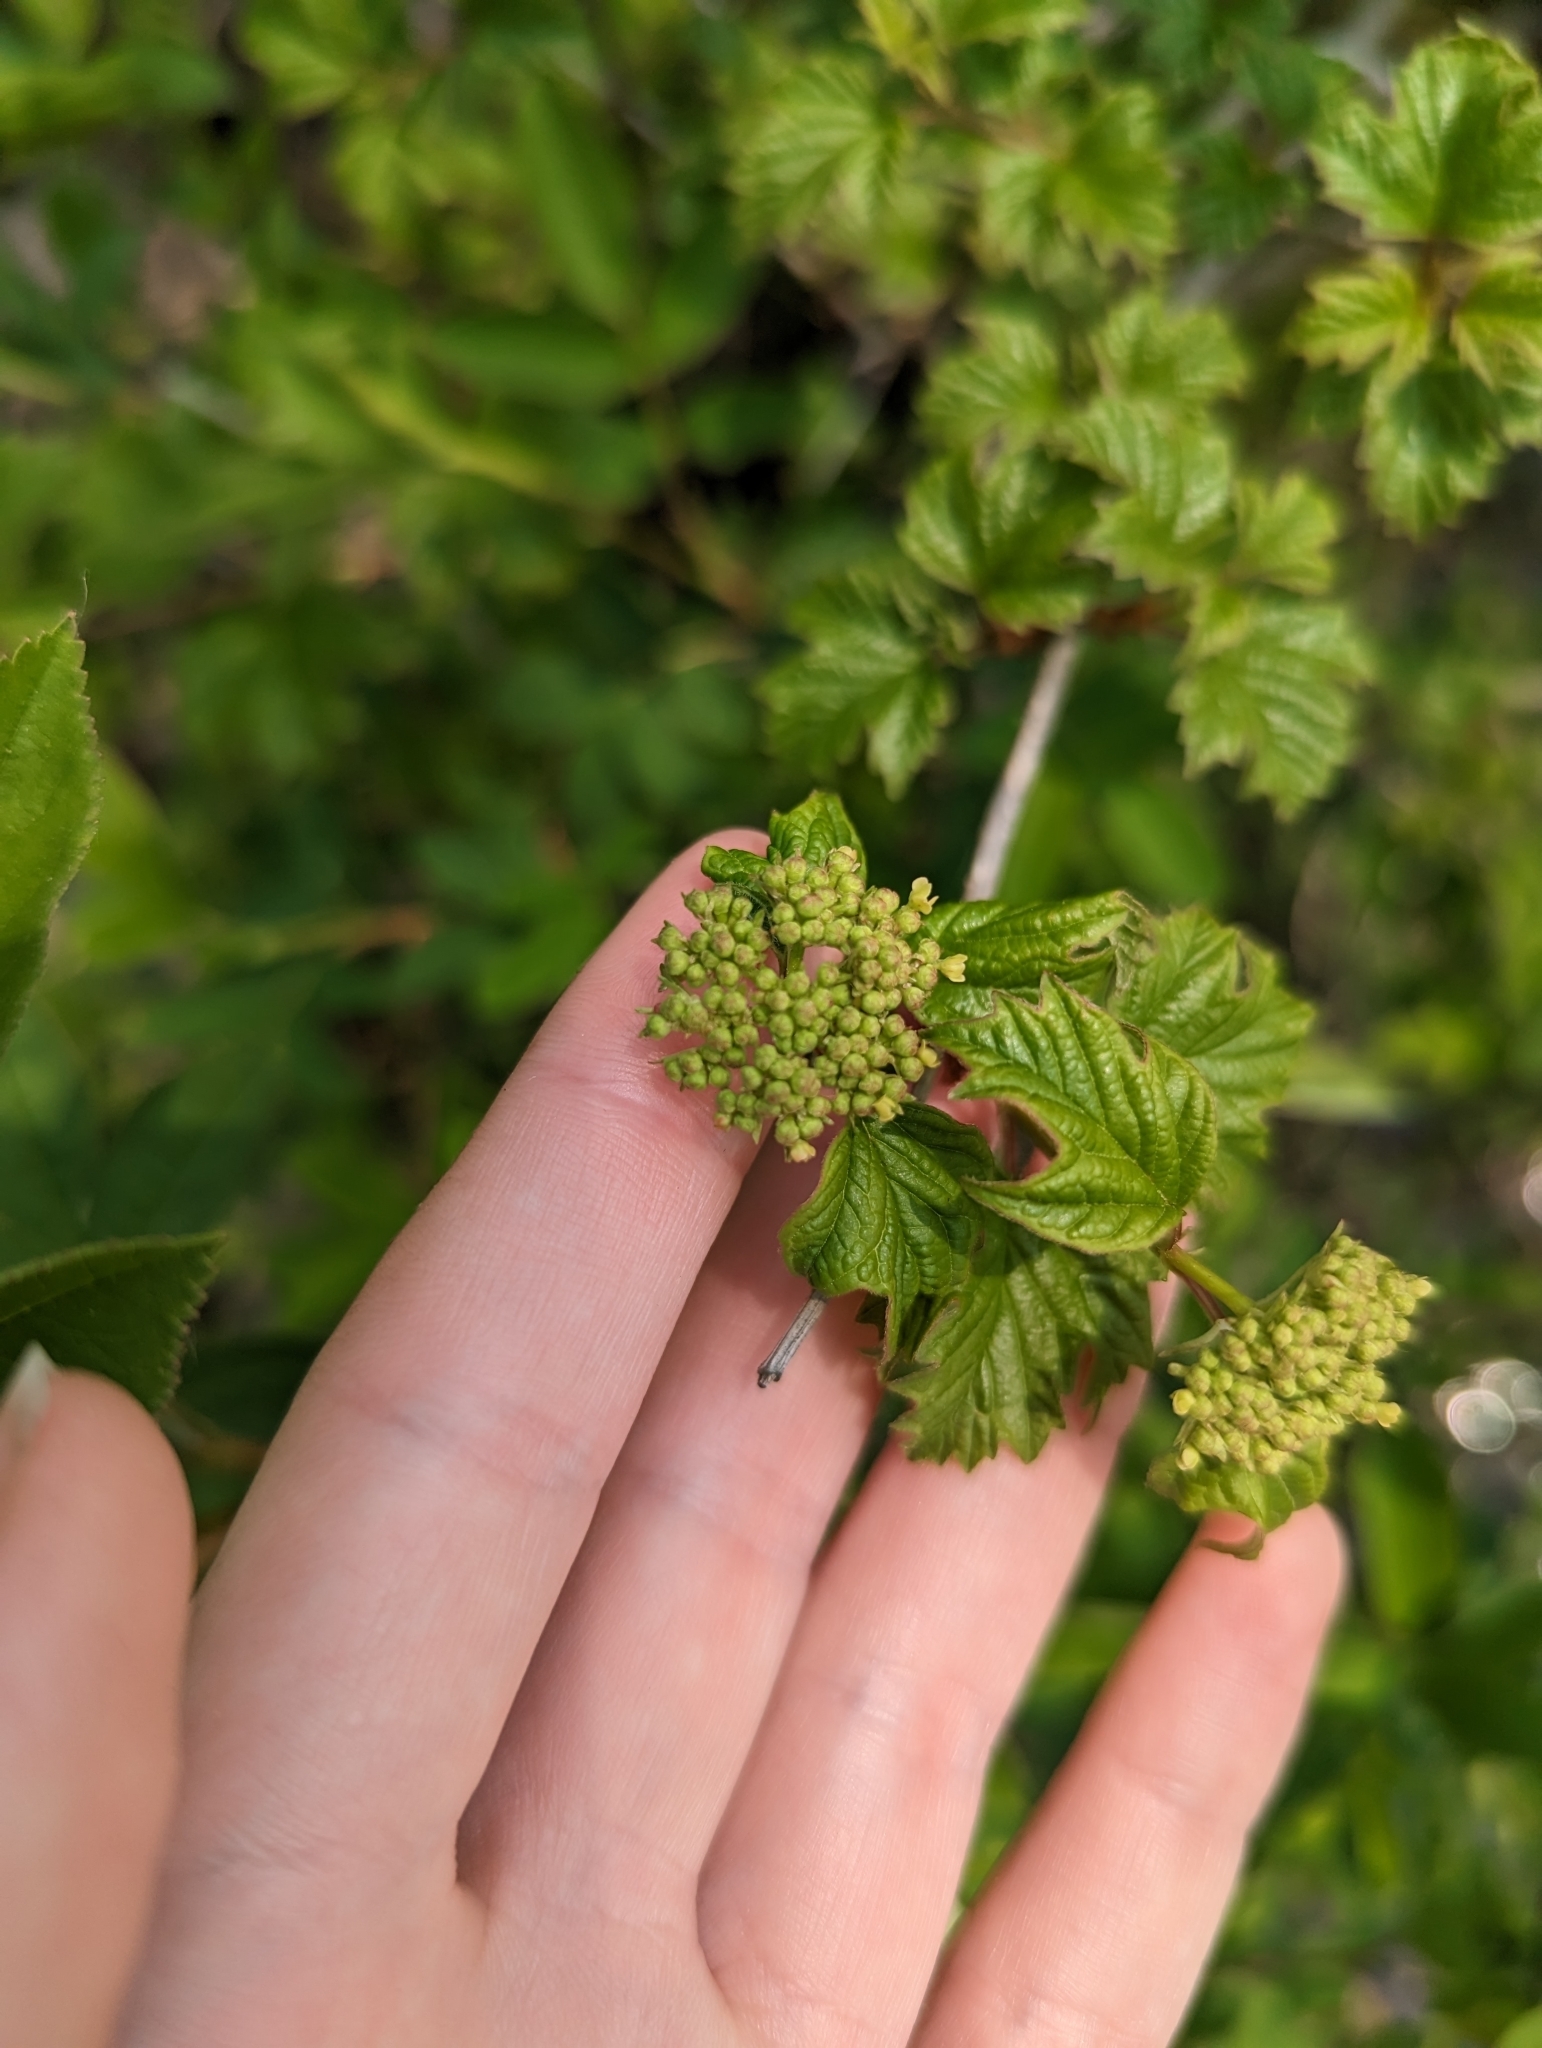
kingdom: Plantae
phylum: Tracheophyta
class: Magnoliopsida
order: Dipsacales
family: Viburnaceae
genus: Viburnum
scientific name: Viburnum opulus
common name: Guelder-rose
